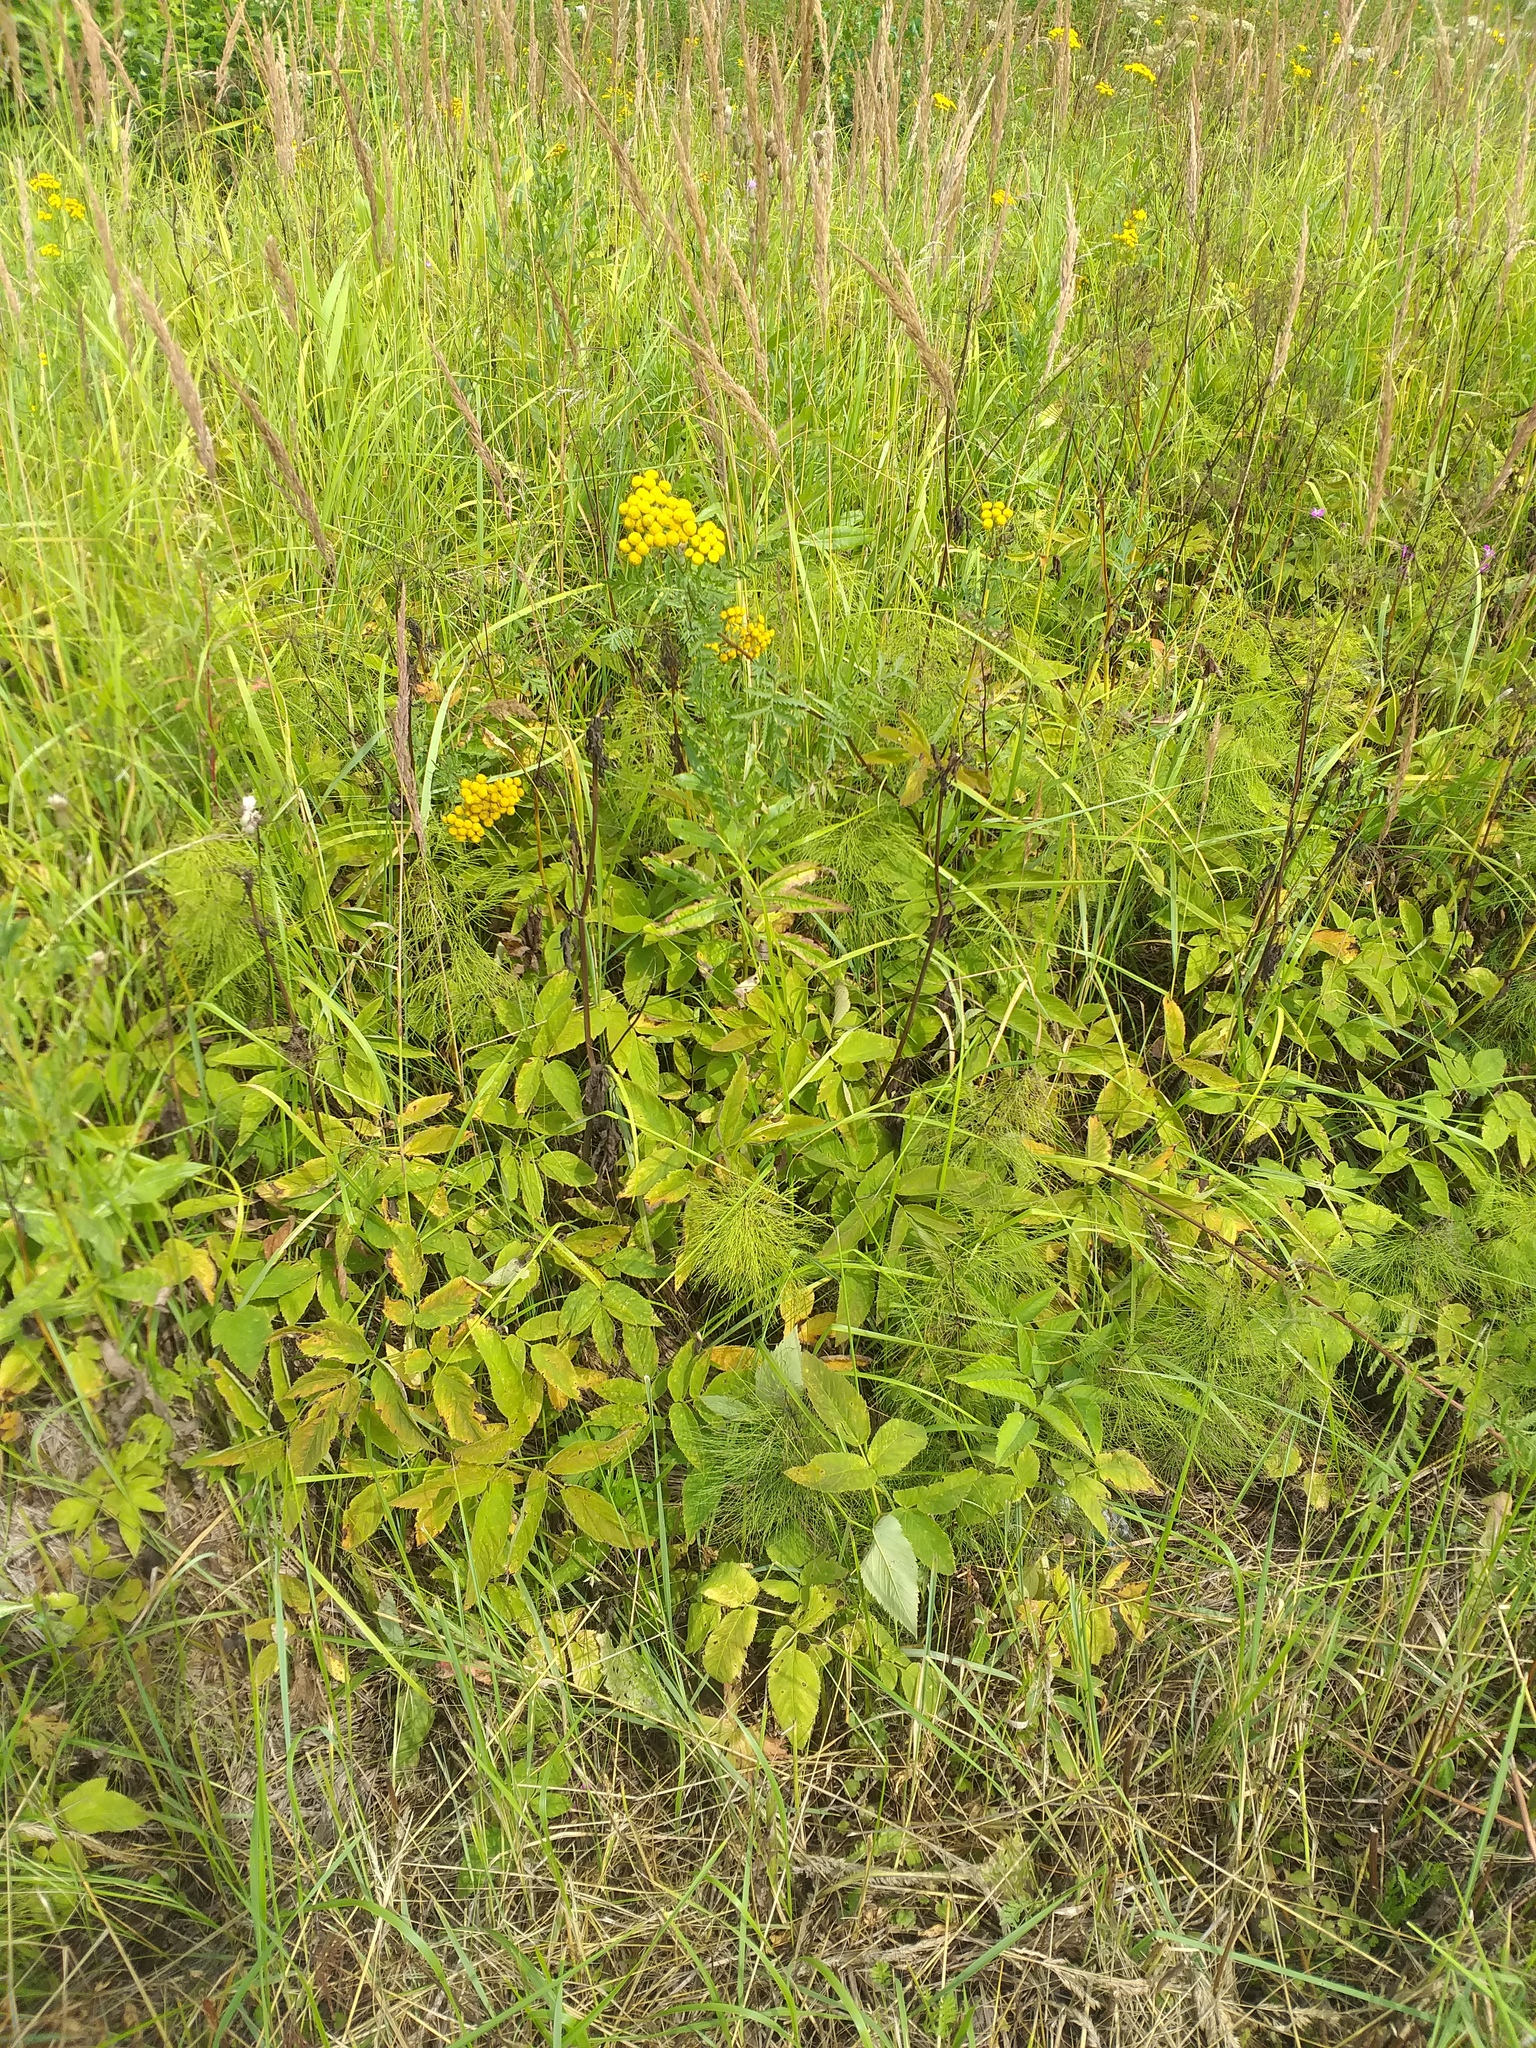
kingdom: Plantae
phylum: Tracheophyta
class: Magnoliopsida
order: Apiales
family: Apiaceae
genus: Aegopodium
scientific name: Aegopodium podagraria
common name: Ground-elder
